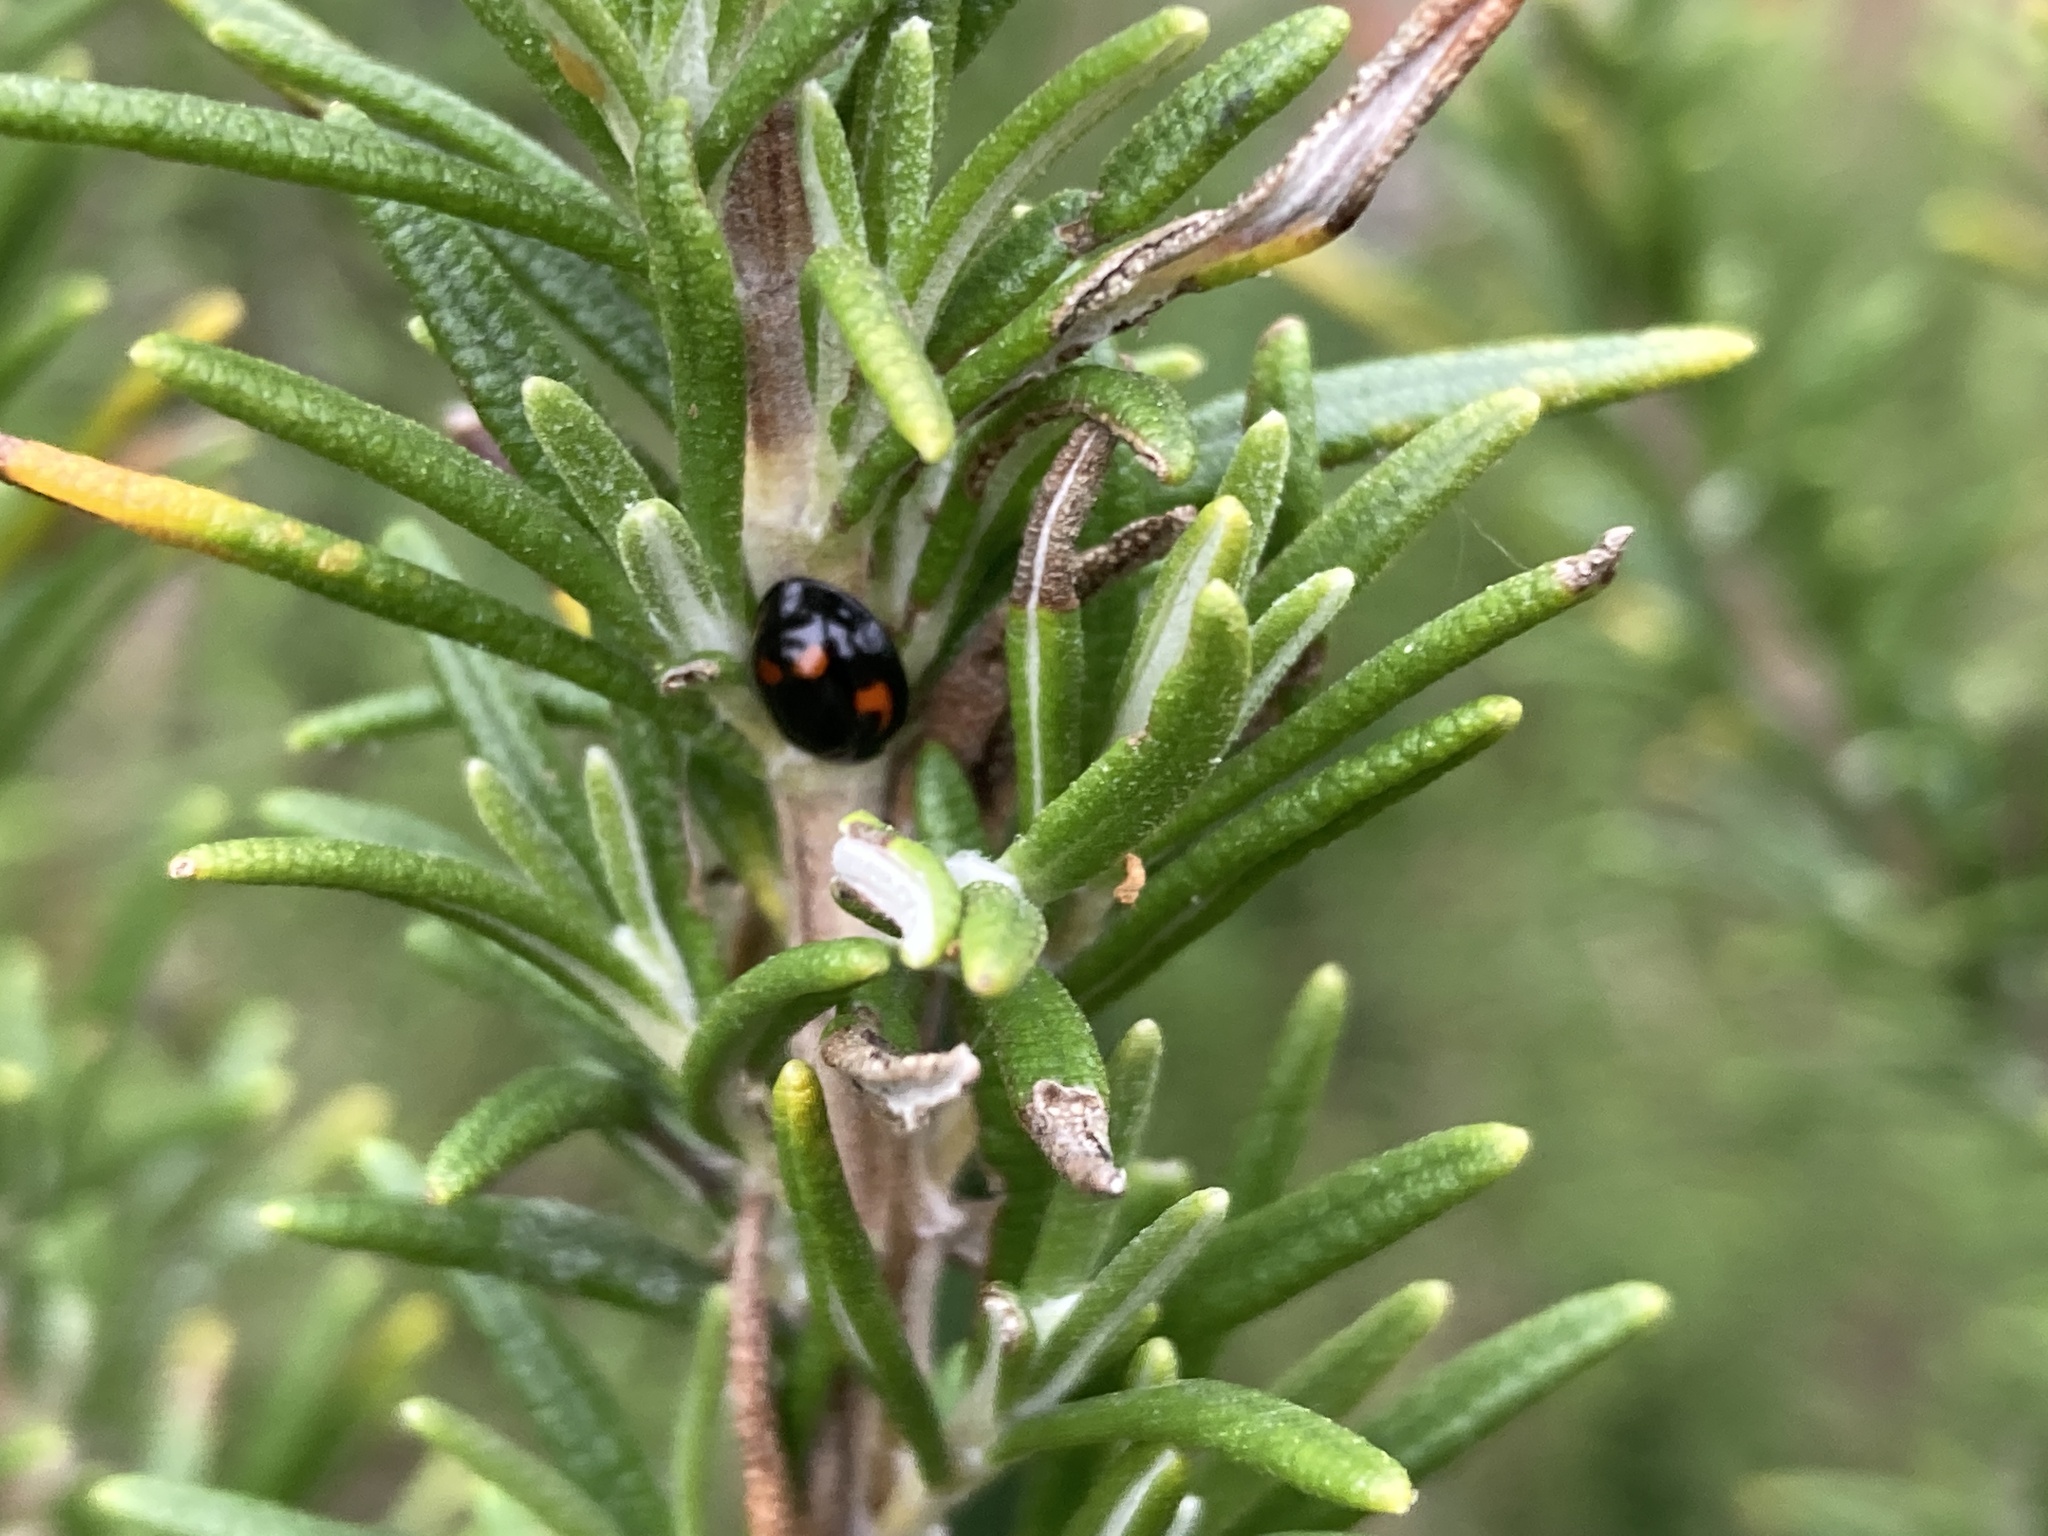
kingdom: Animalia
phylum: Arthropoda
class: Insecta
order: Coleoptera
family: Coccinellidae
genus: Brumus
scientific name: Brumus quadripustulatus
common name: Ladybird beetle
